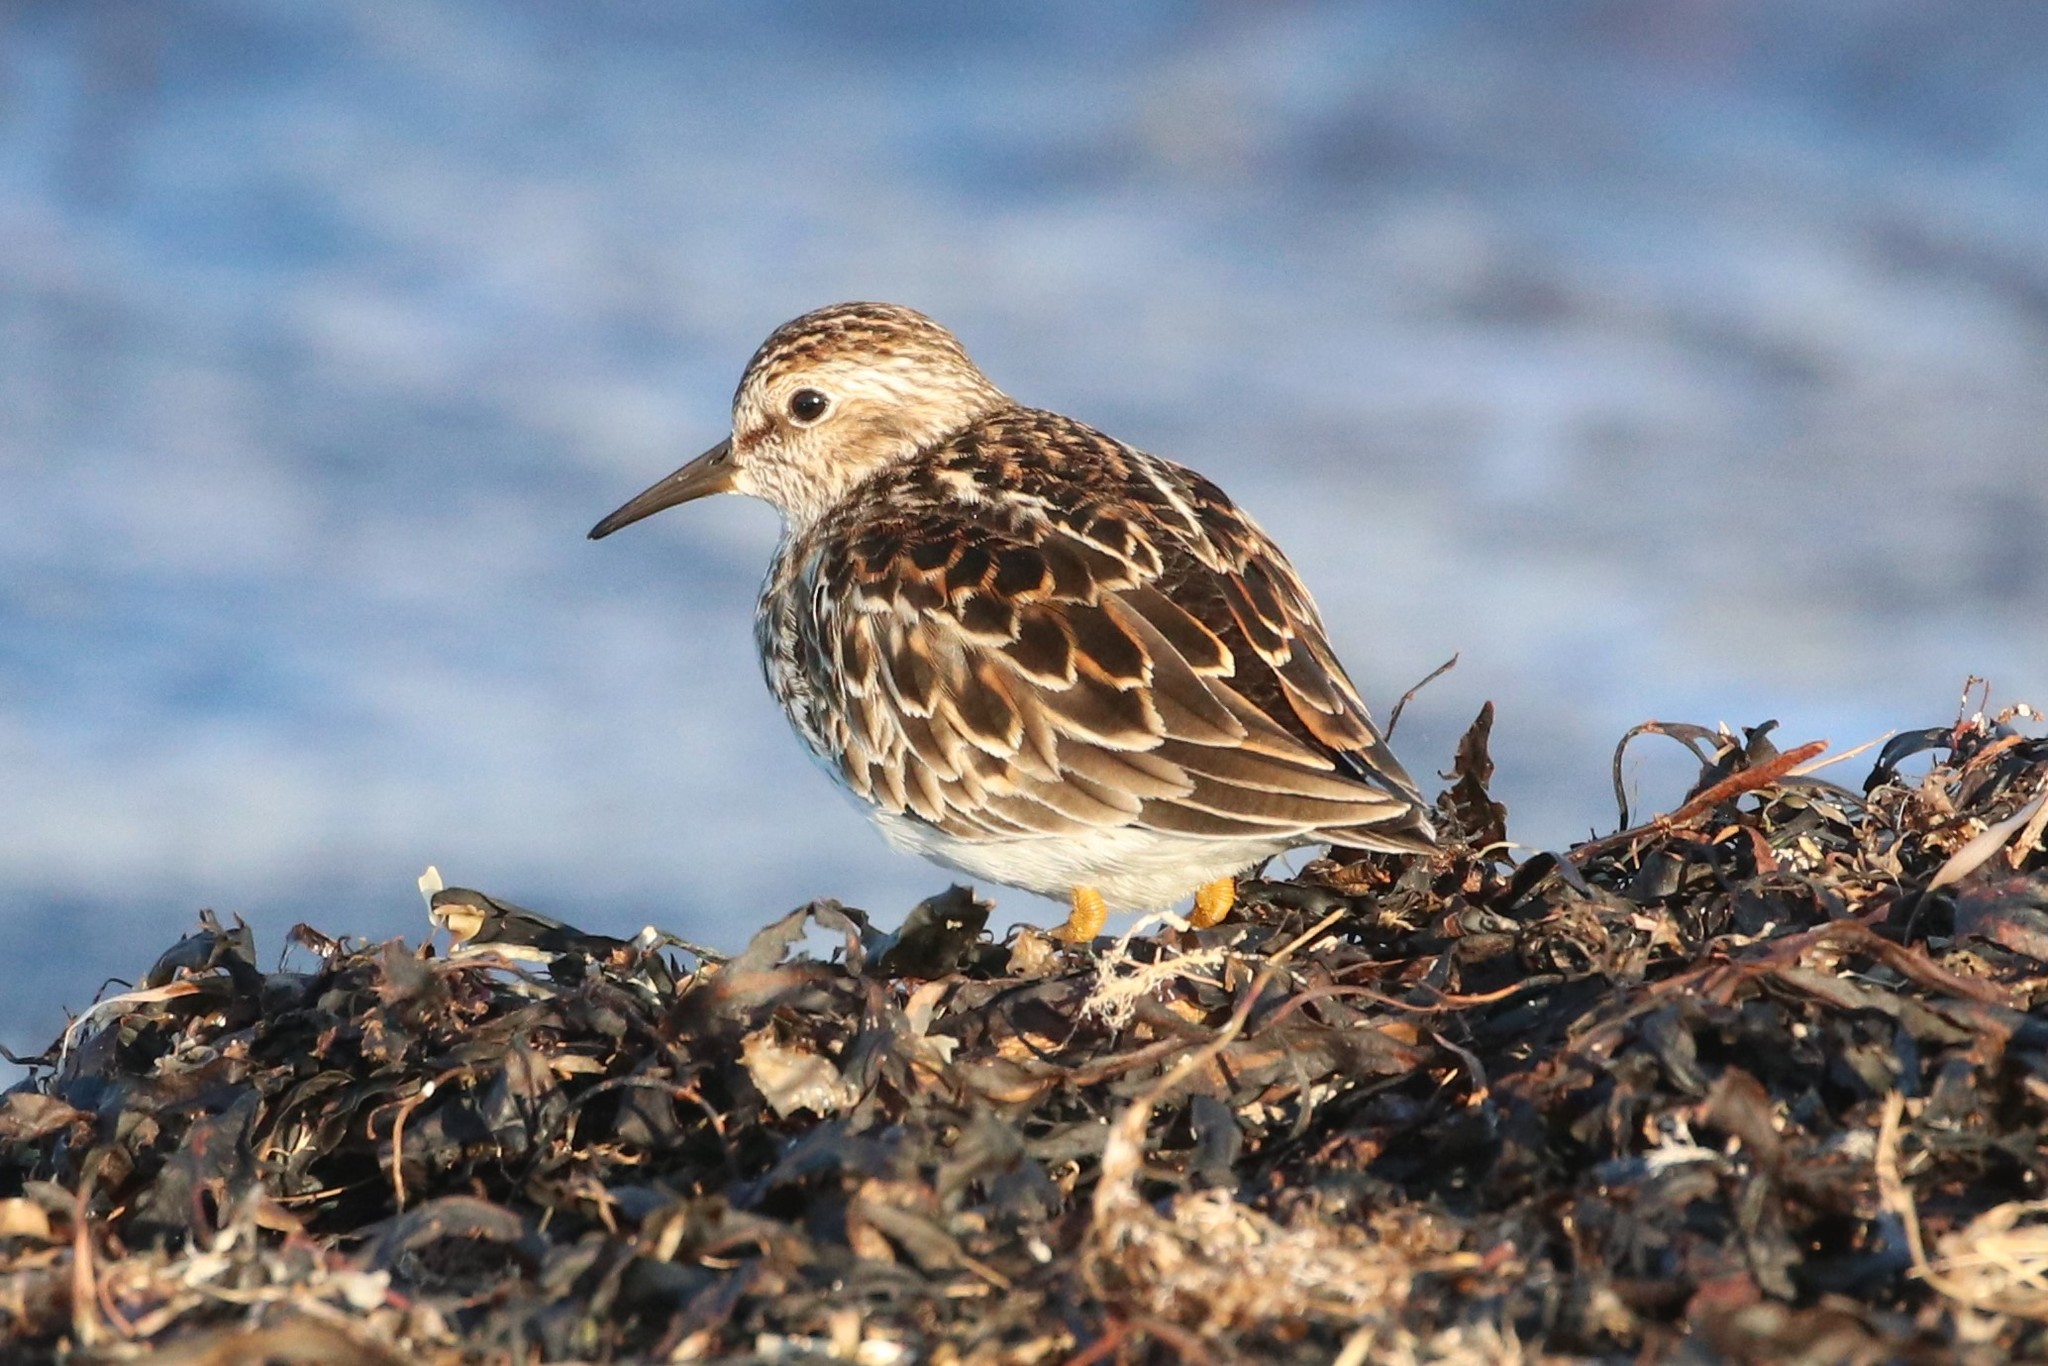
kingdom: Animalia
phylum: Chordata
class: Aves
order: Charadriiformes
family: Scolopacidae
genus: Calidris
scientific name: Calidris minutilla
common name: Least sandpiper
